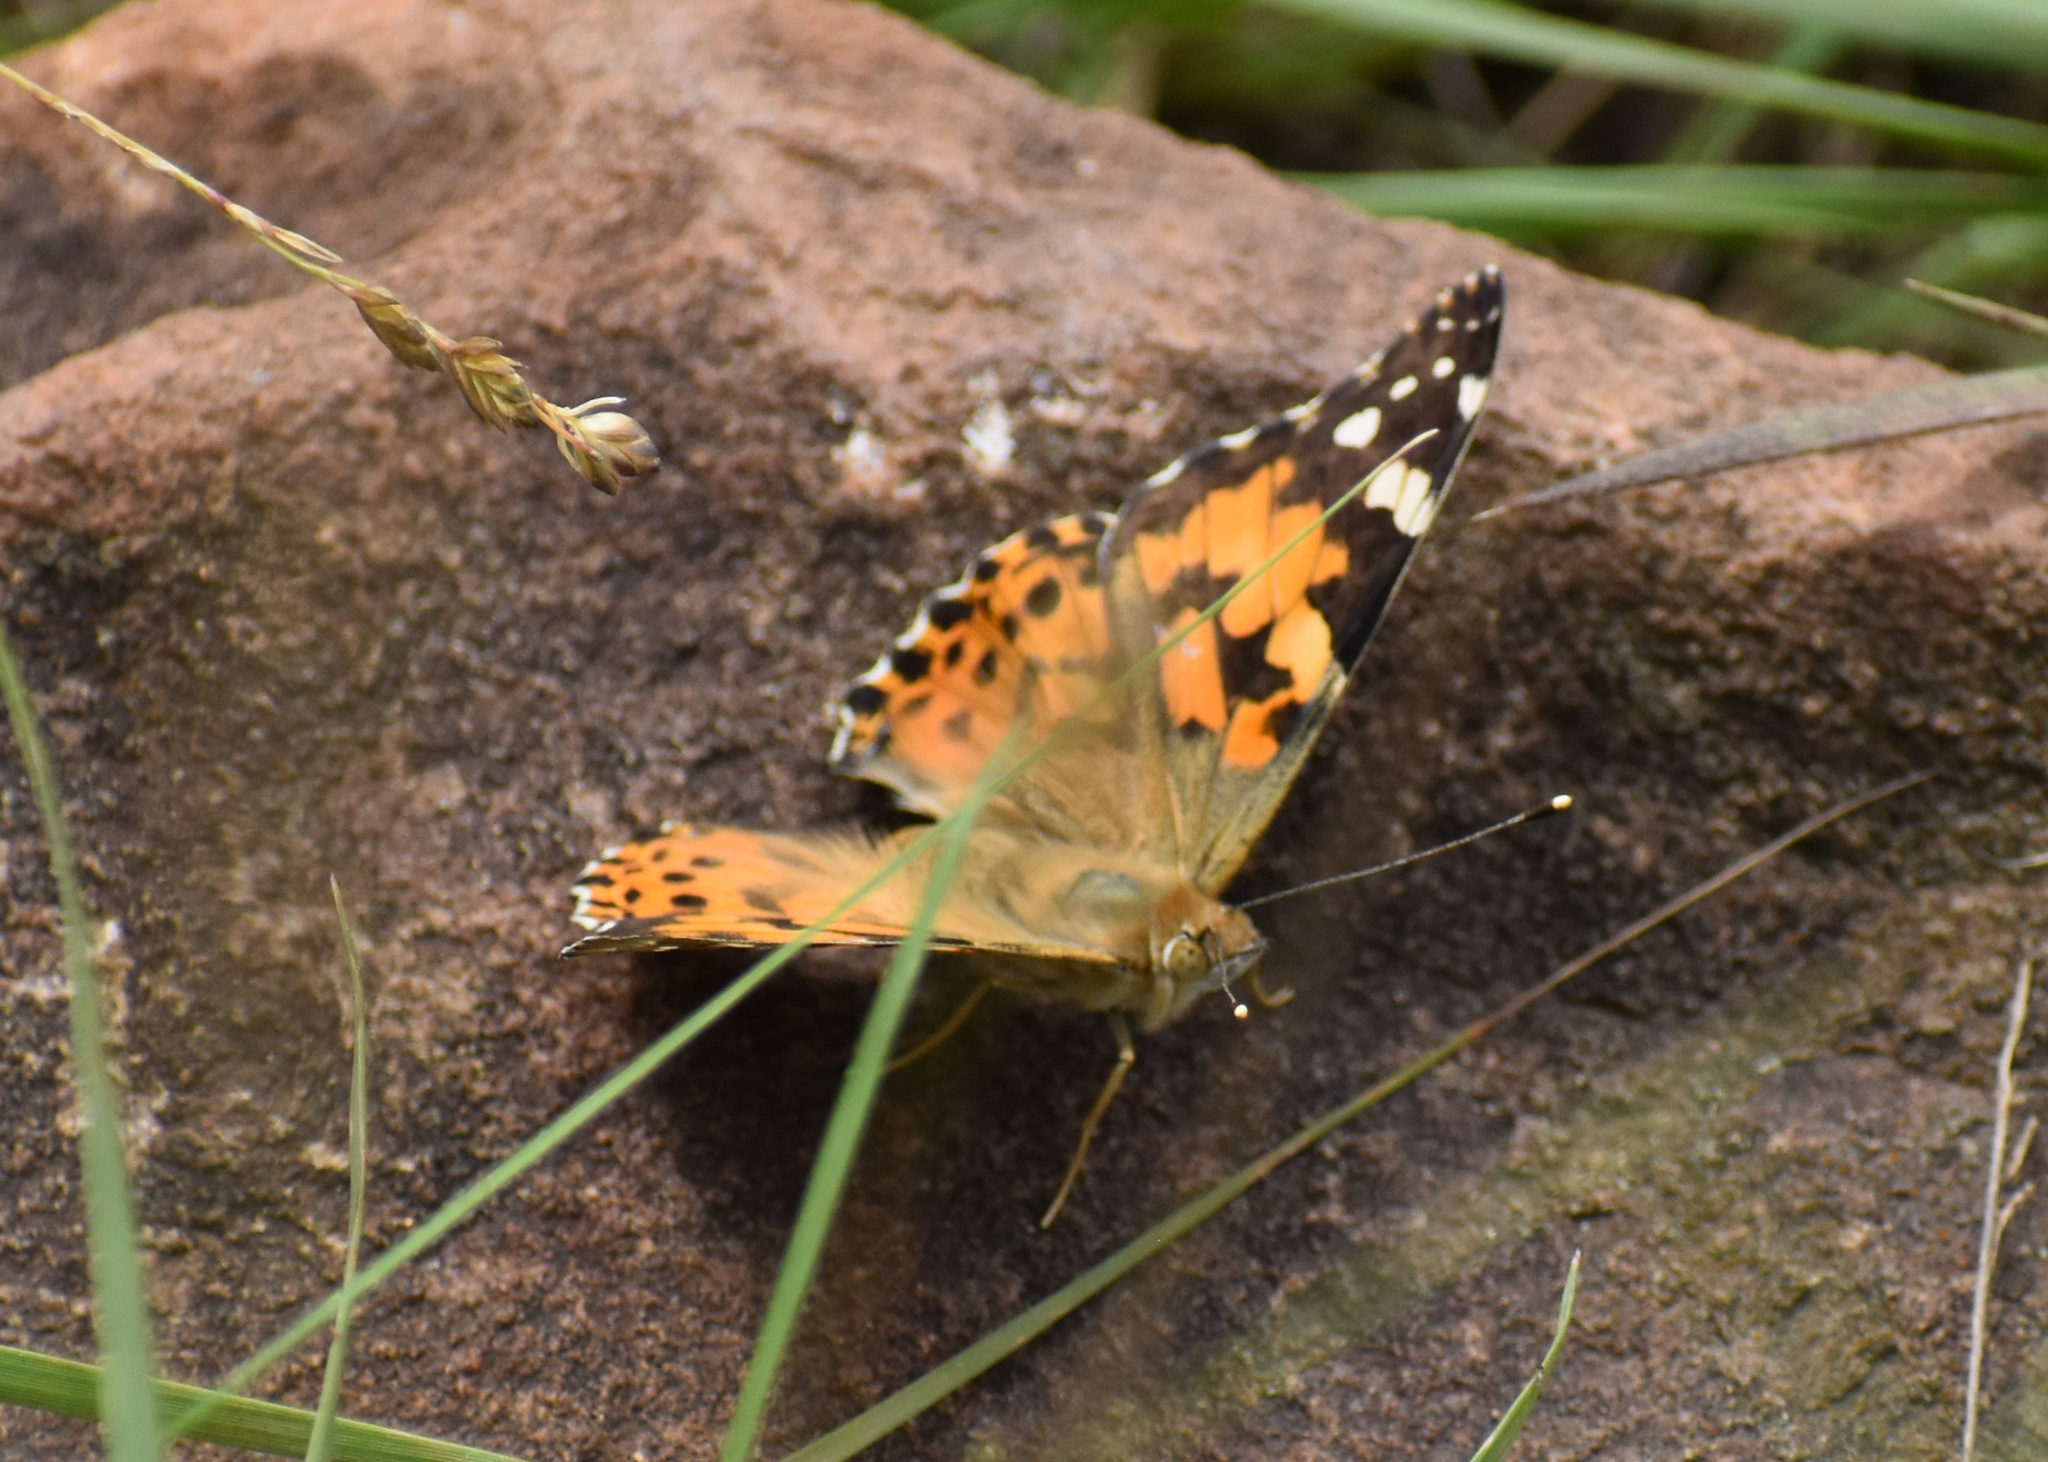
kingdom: Animalia
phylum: Arthropoda
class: Insecta
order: Lepidoptera
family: Nymphalidae
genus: Vanessa
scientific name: Vanessa cardui
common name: Painted lady
